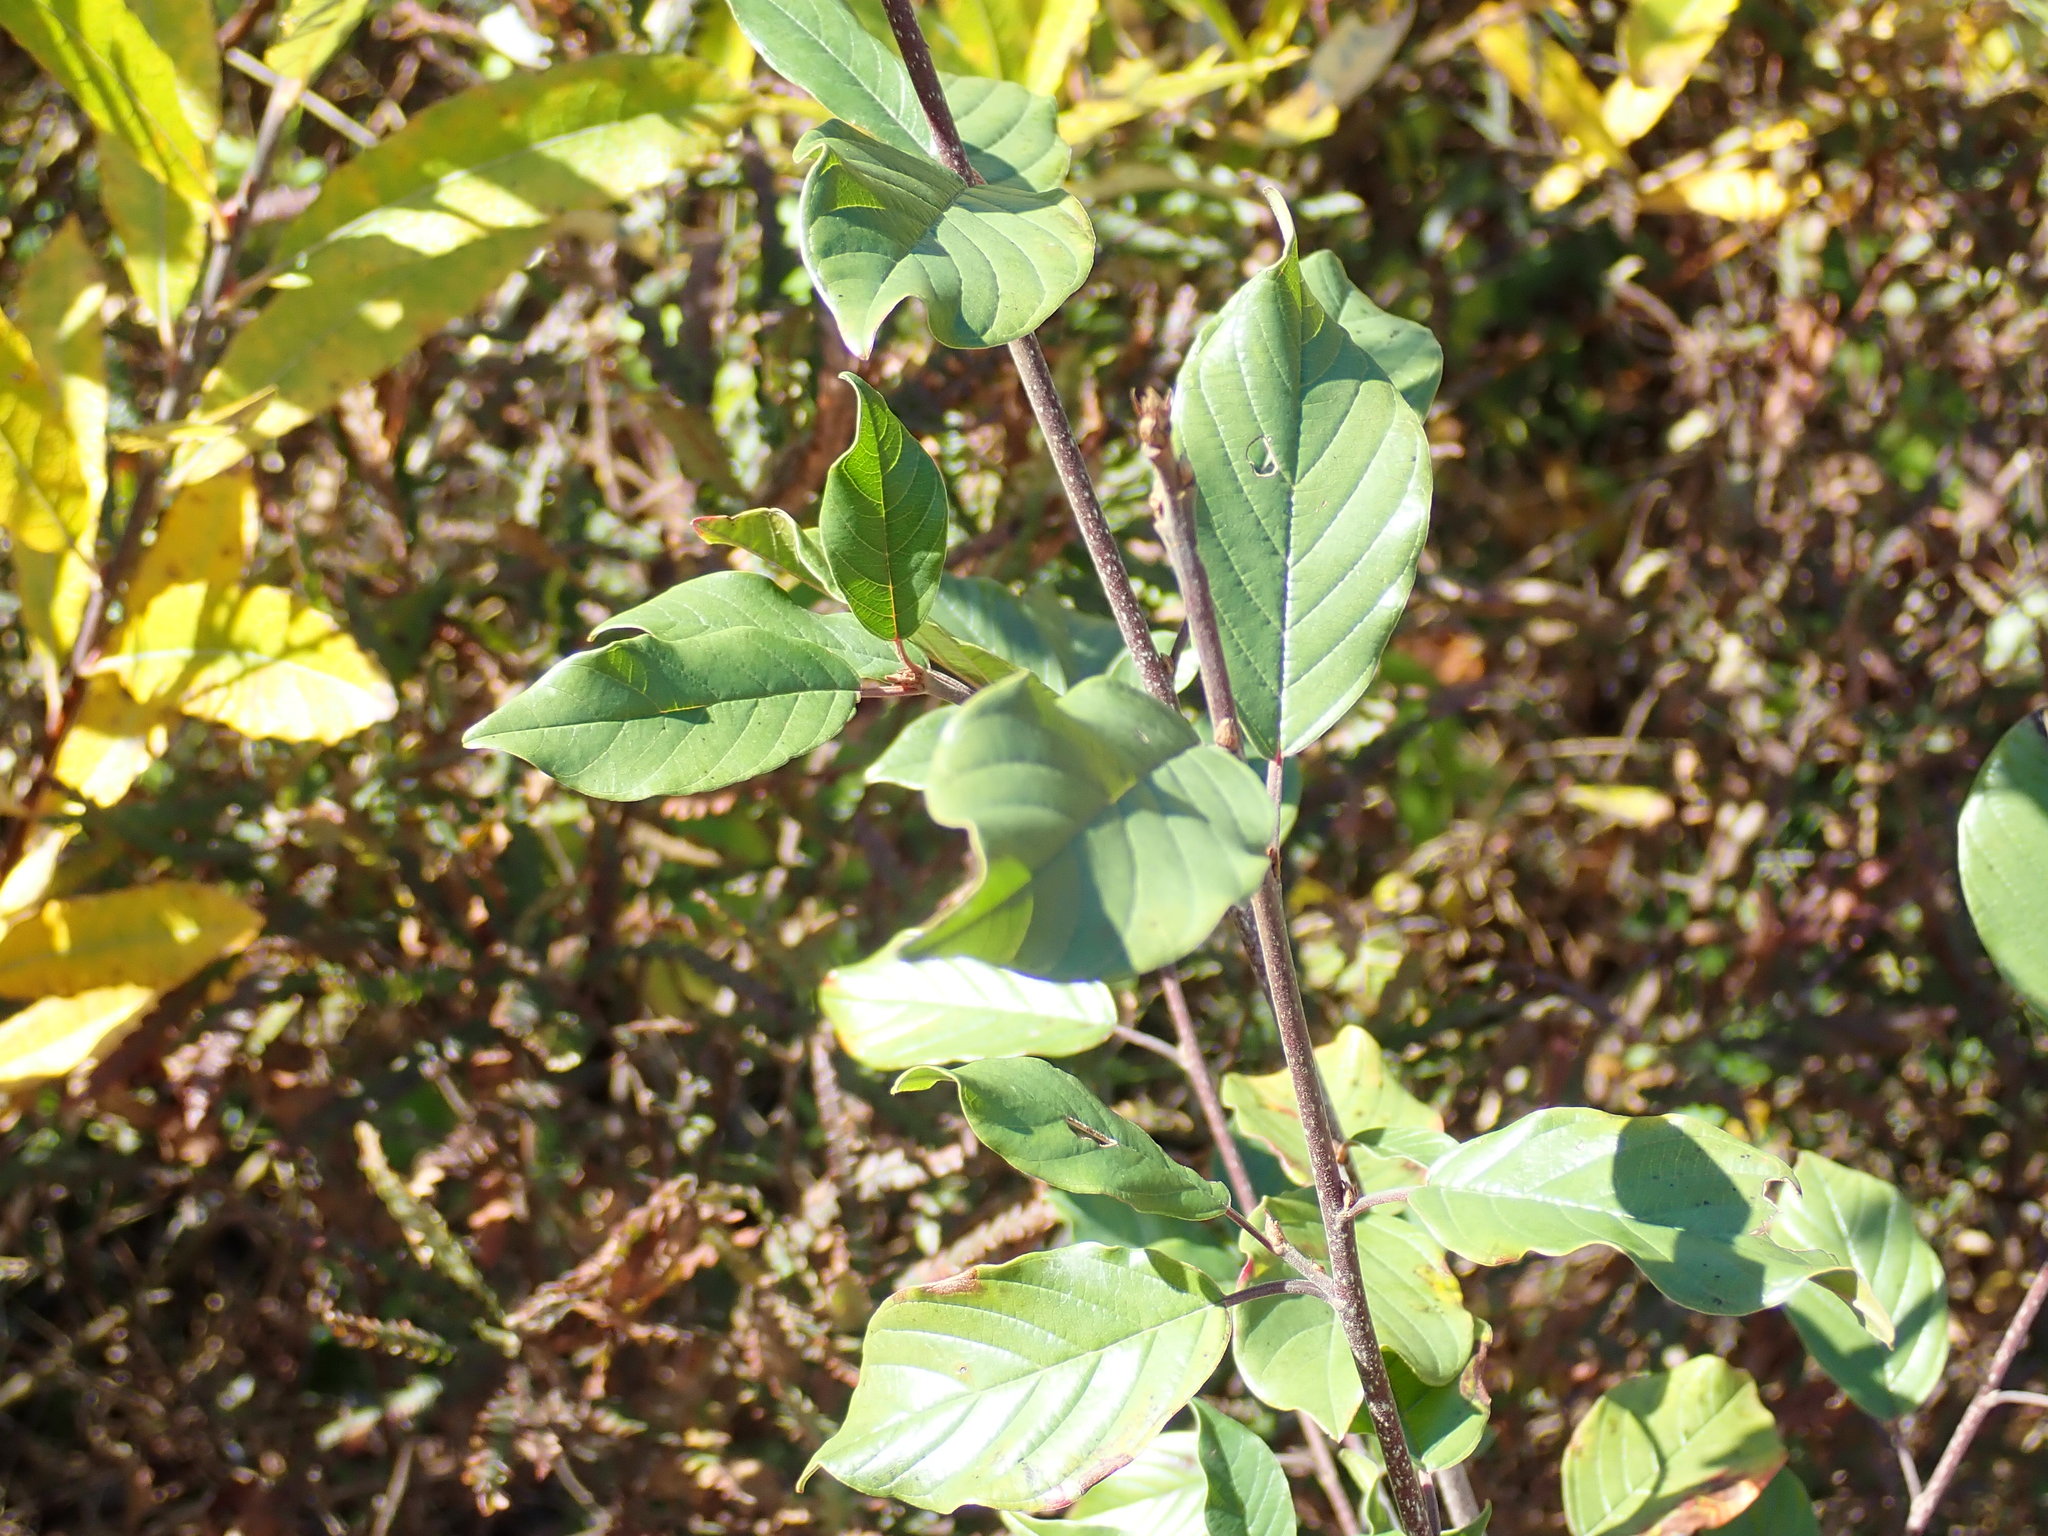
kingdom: Plantae
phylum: Tracheophyta
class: Magnoliopsida
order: Rosales
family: Rhamnaceae
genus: Frangula
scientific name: Frangula alnus
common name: Alder buckthorn
